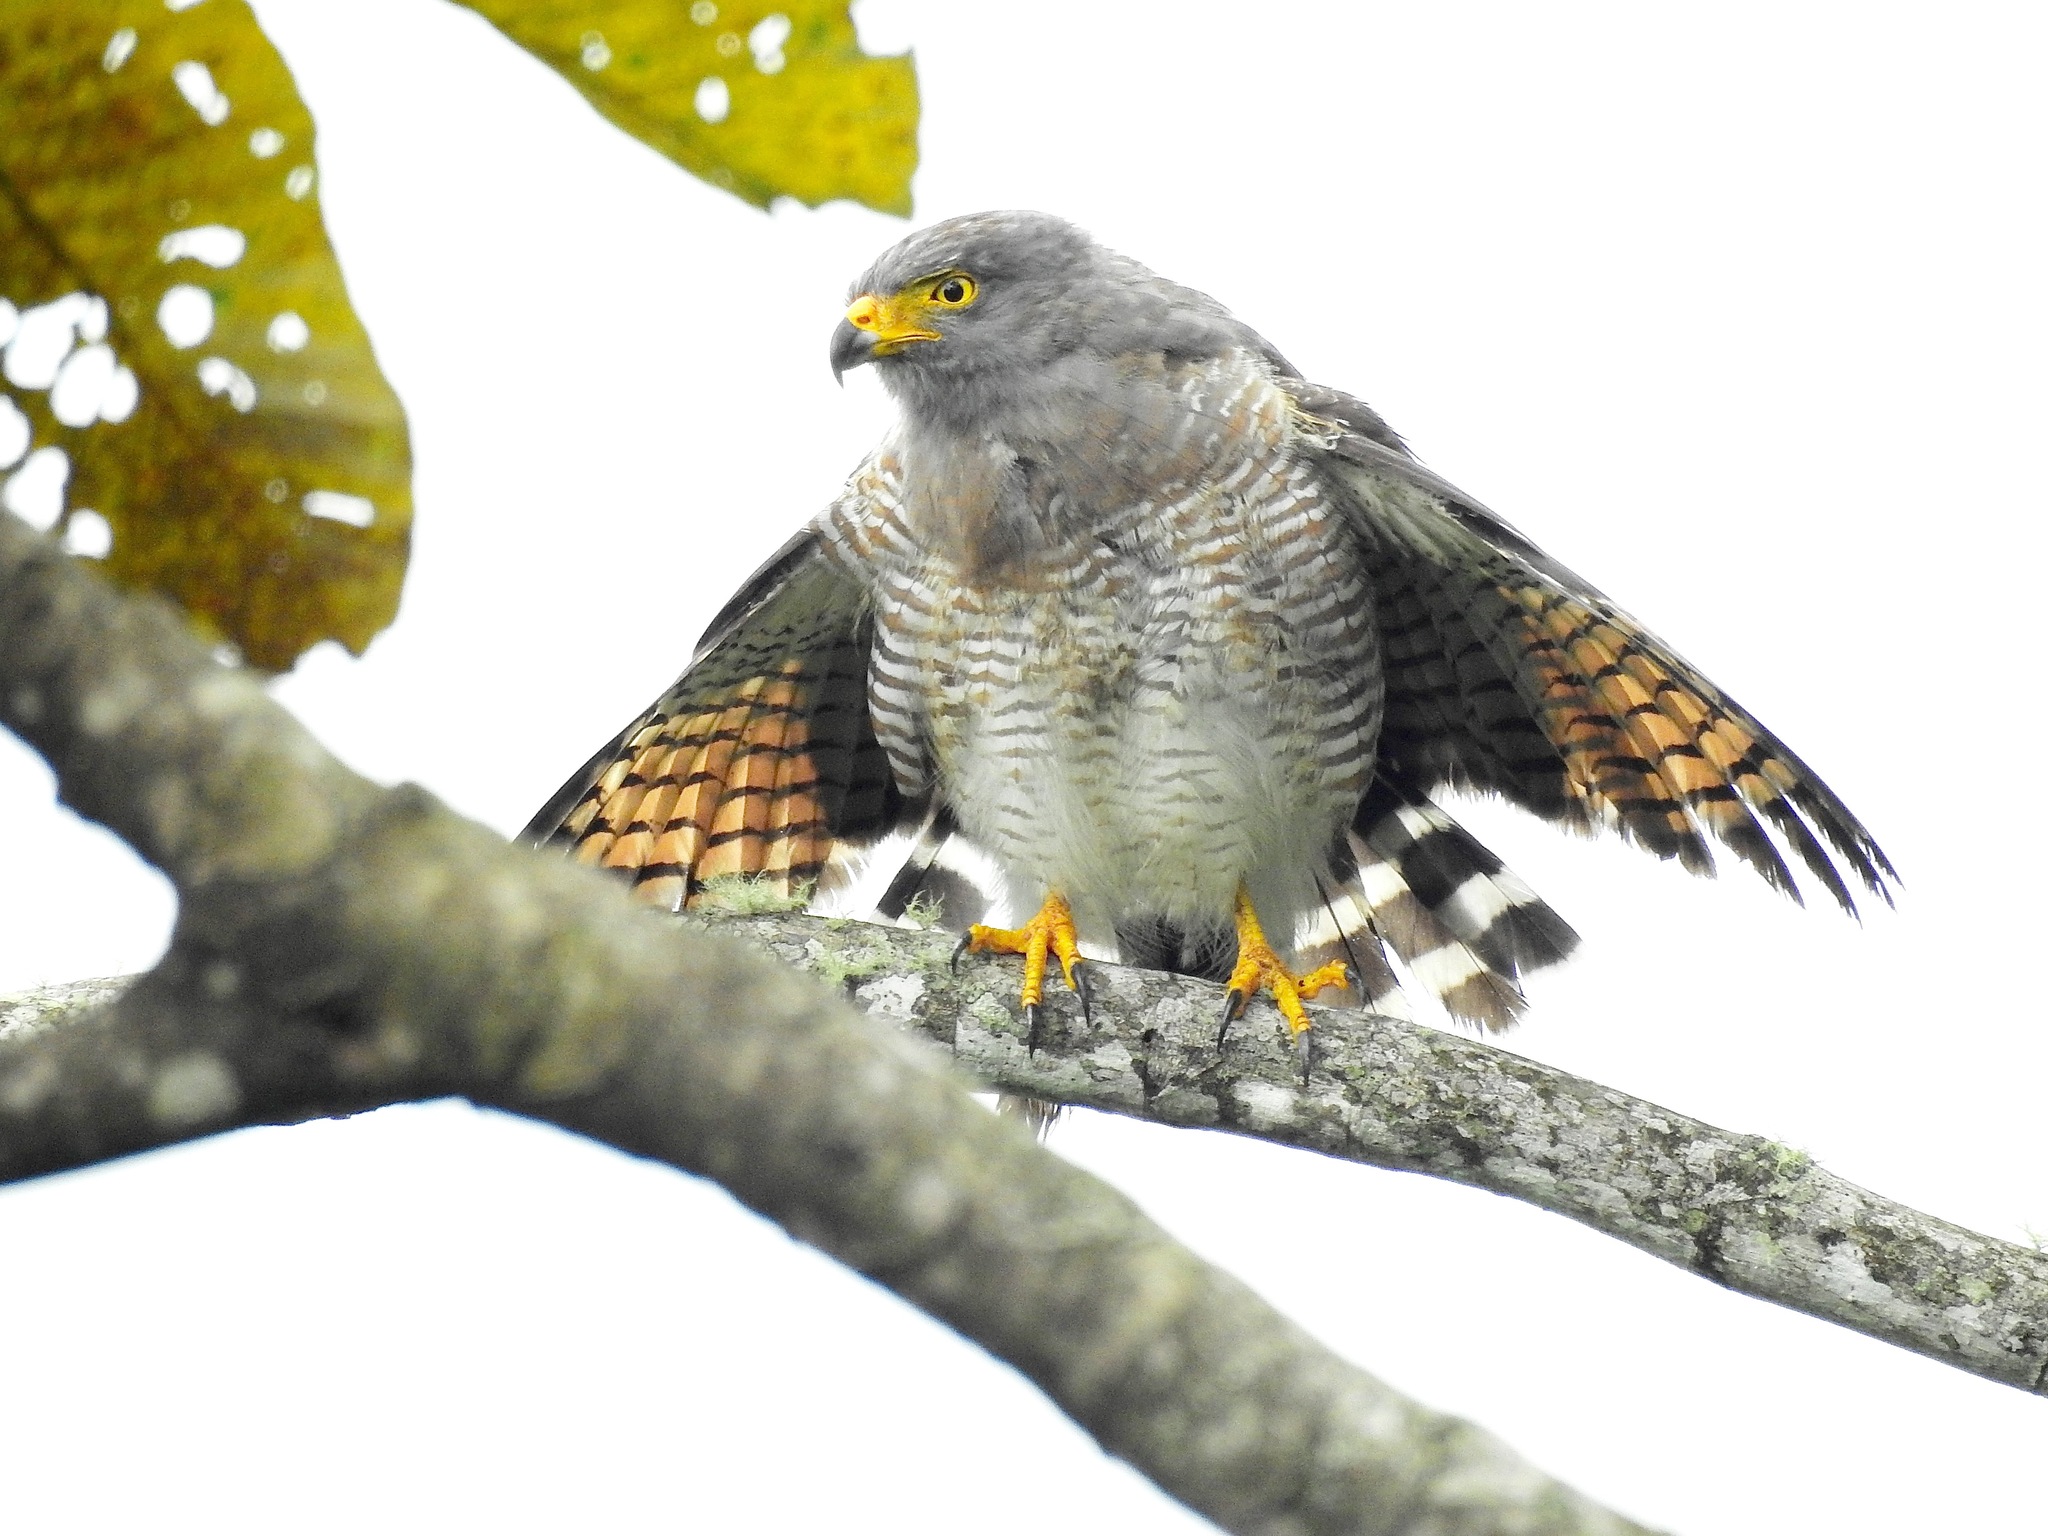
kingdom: Animalia
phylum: Chordata
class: Aves
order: Accipitriformes
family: Accipitridae
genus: Rupornis
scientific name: Rupornis magnirostris
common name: Roadside hawk
